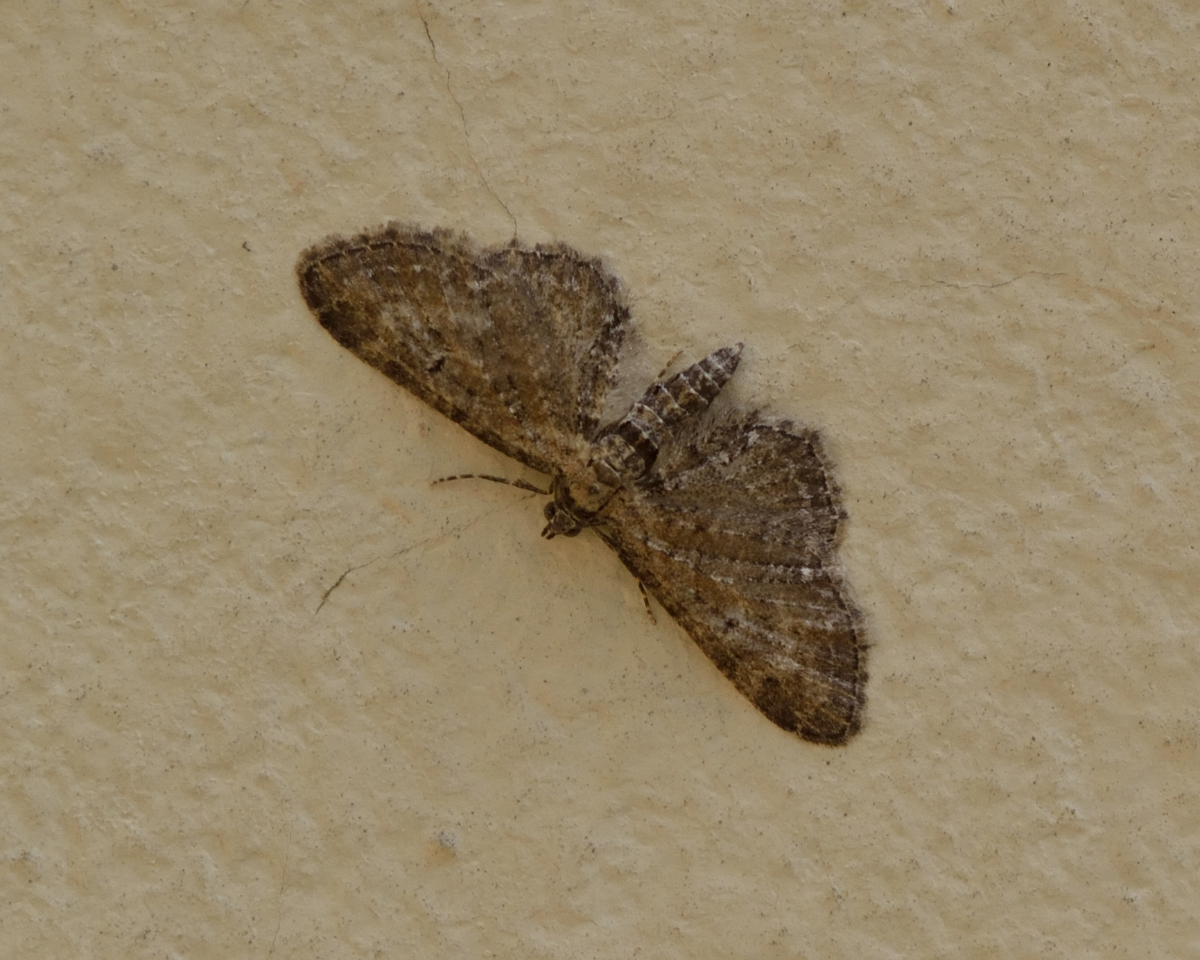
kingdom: Animalia
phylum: Arthropoda
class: Insecta
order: Lepidoptera
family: Geometridae
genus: Eupithecia
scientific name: Eupithecia vulgata
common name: Common pug
